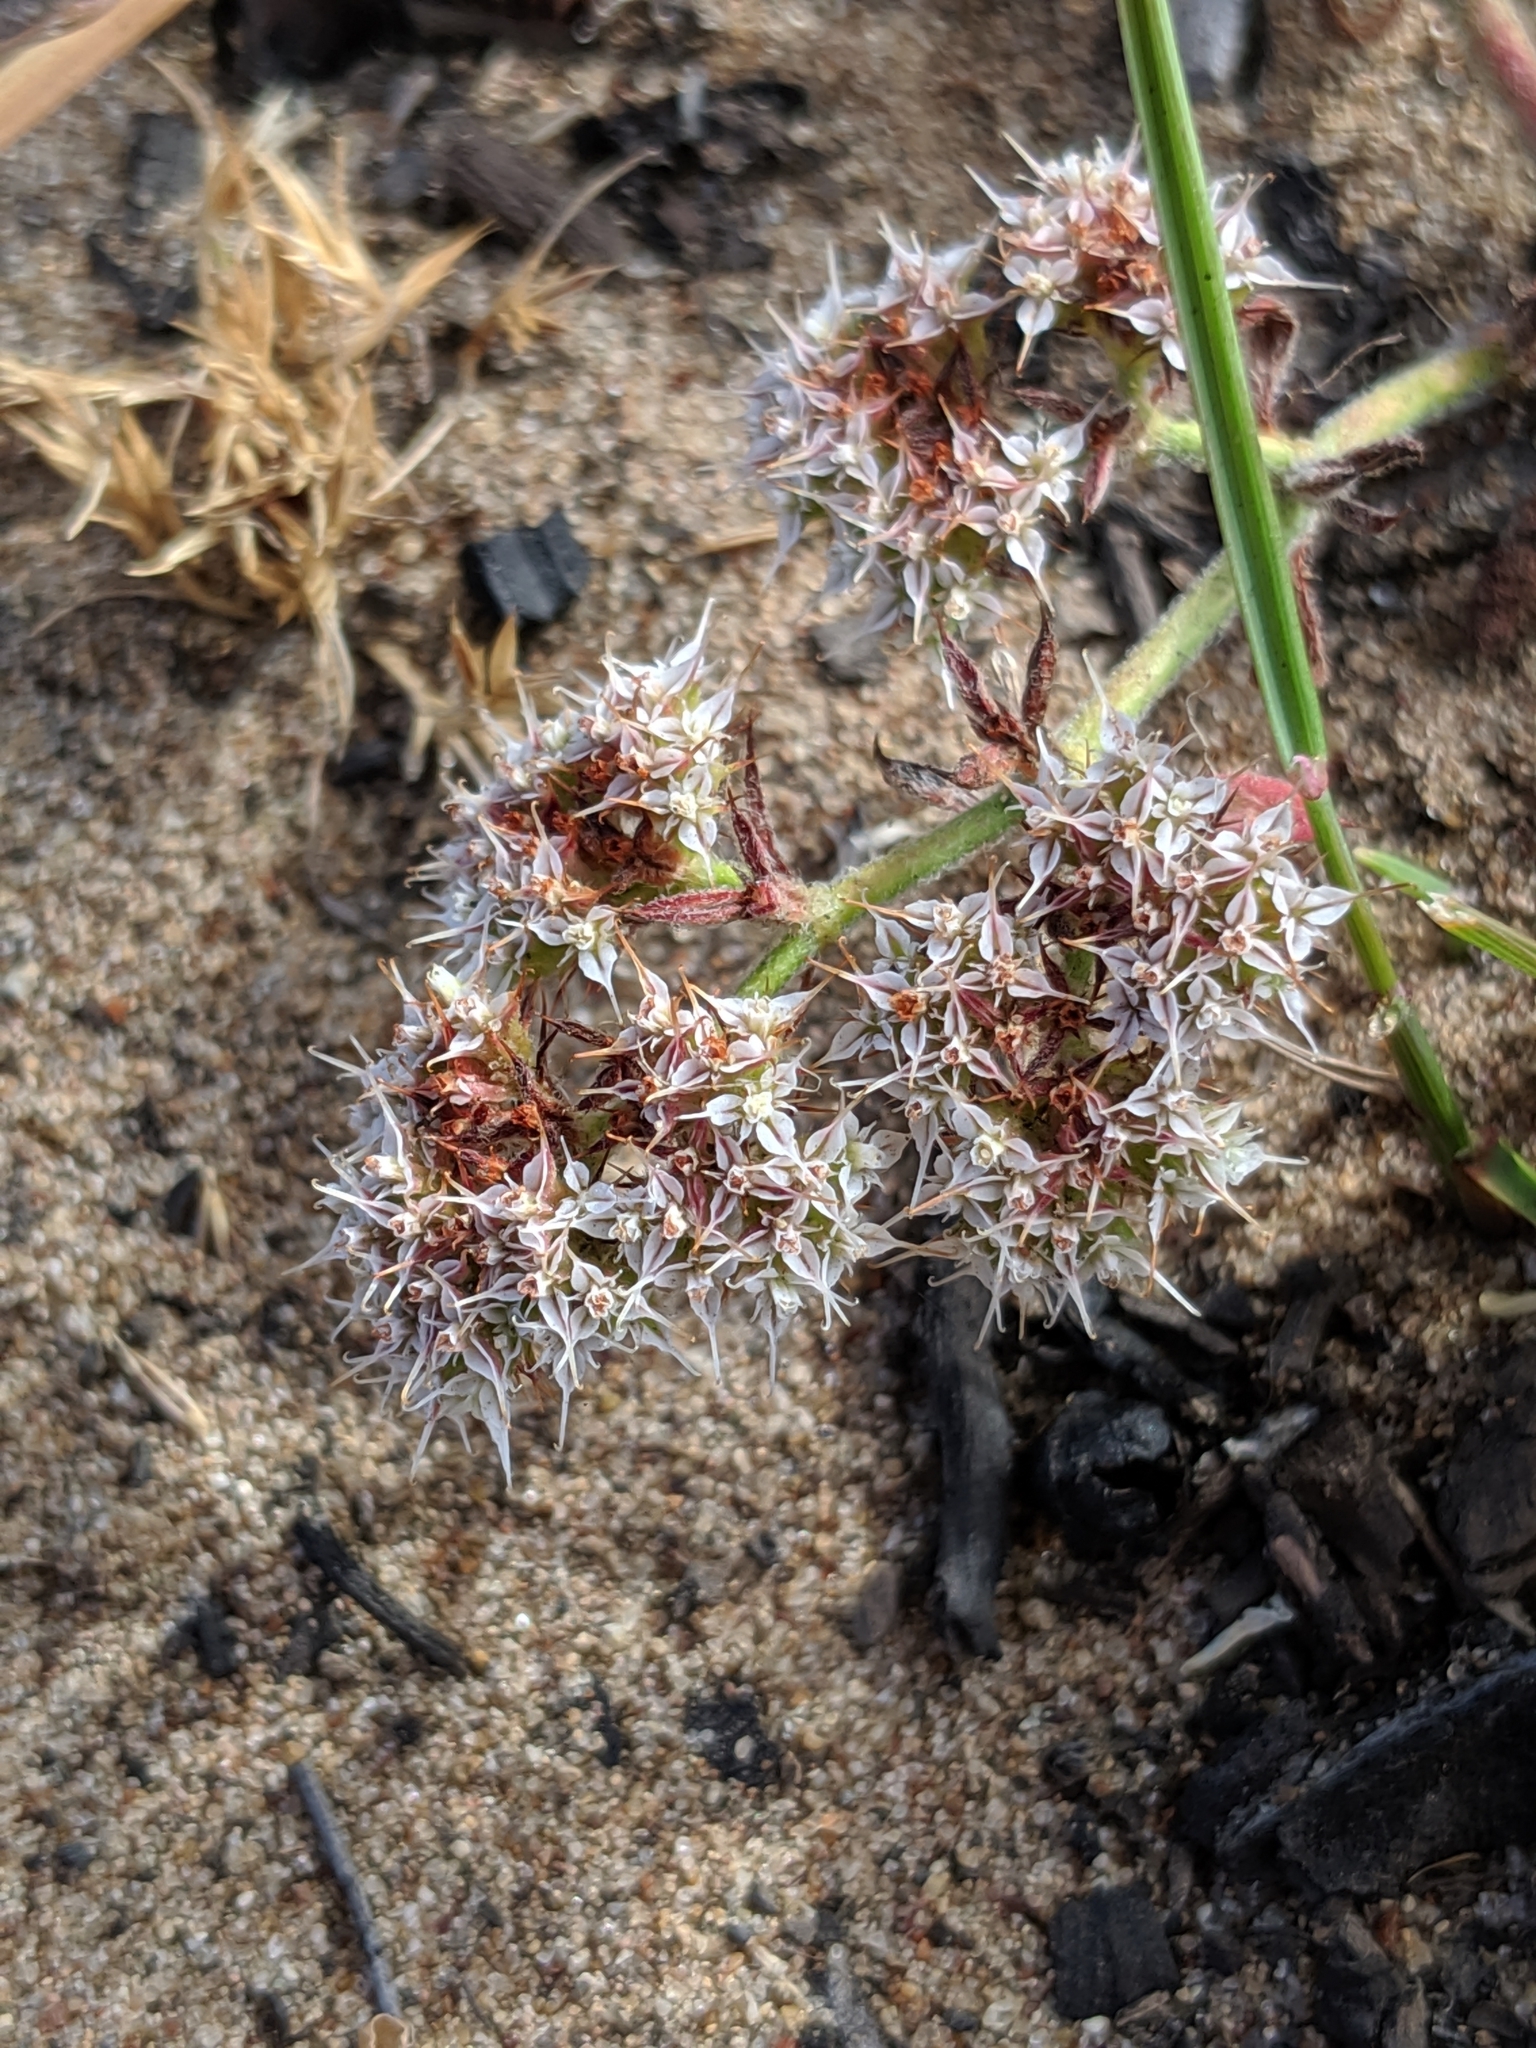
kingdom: Plantae
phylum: Tracheophyta
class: Magnoliopsida
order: Caryophyllales
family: Polygonaceae
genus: Chorizanthe
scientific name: Chorizanthe diffusa
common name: Diffuse spineflower
